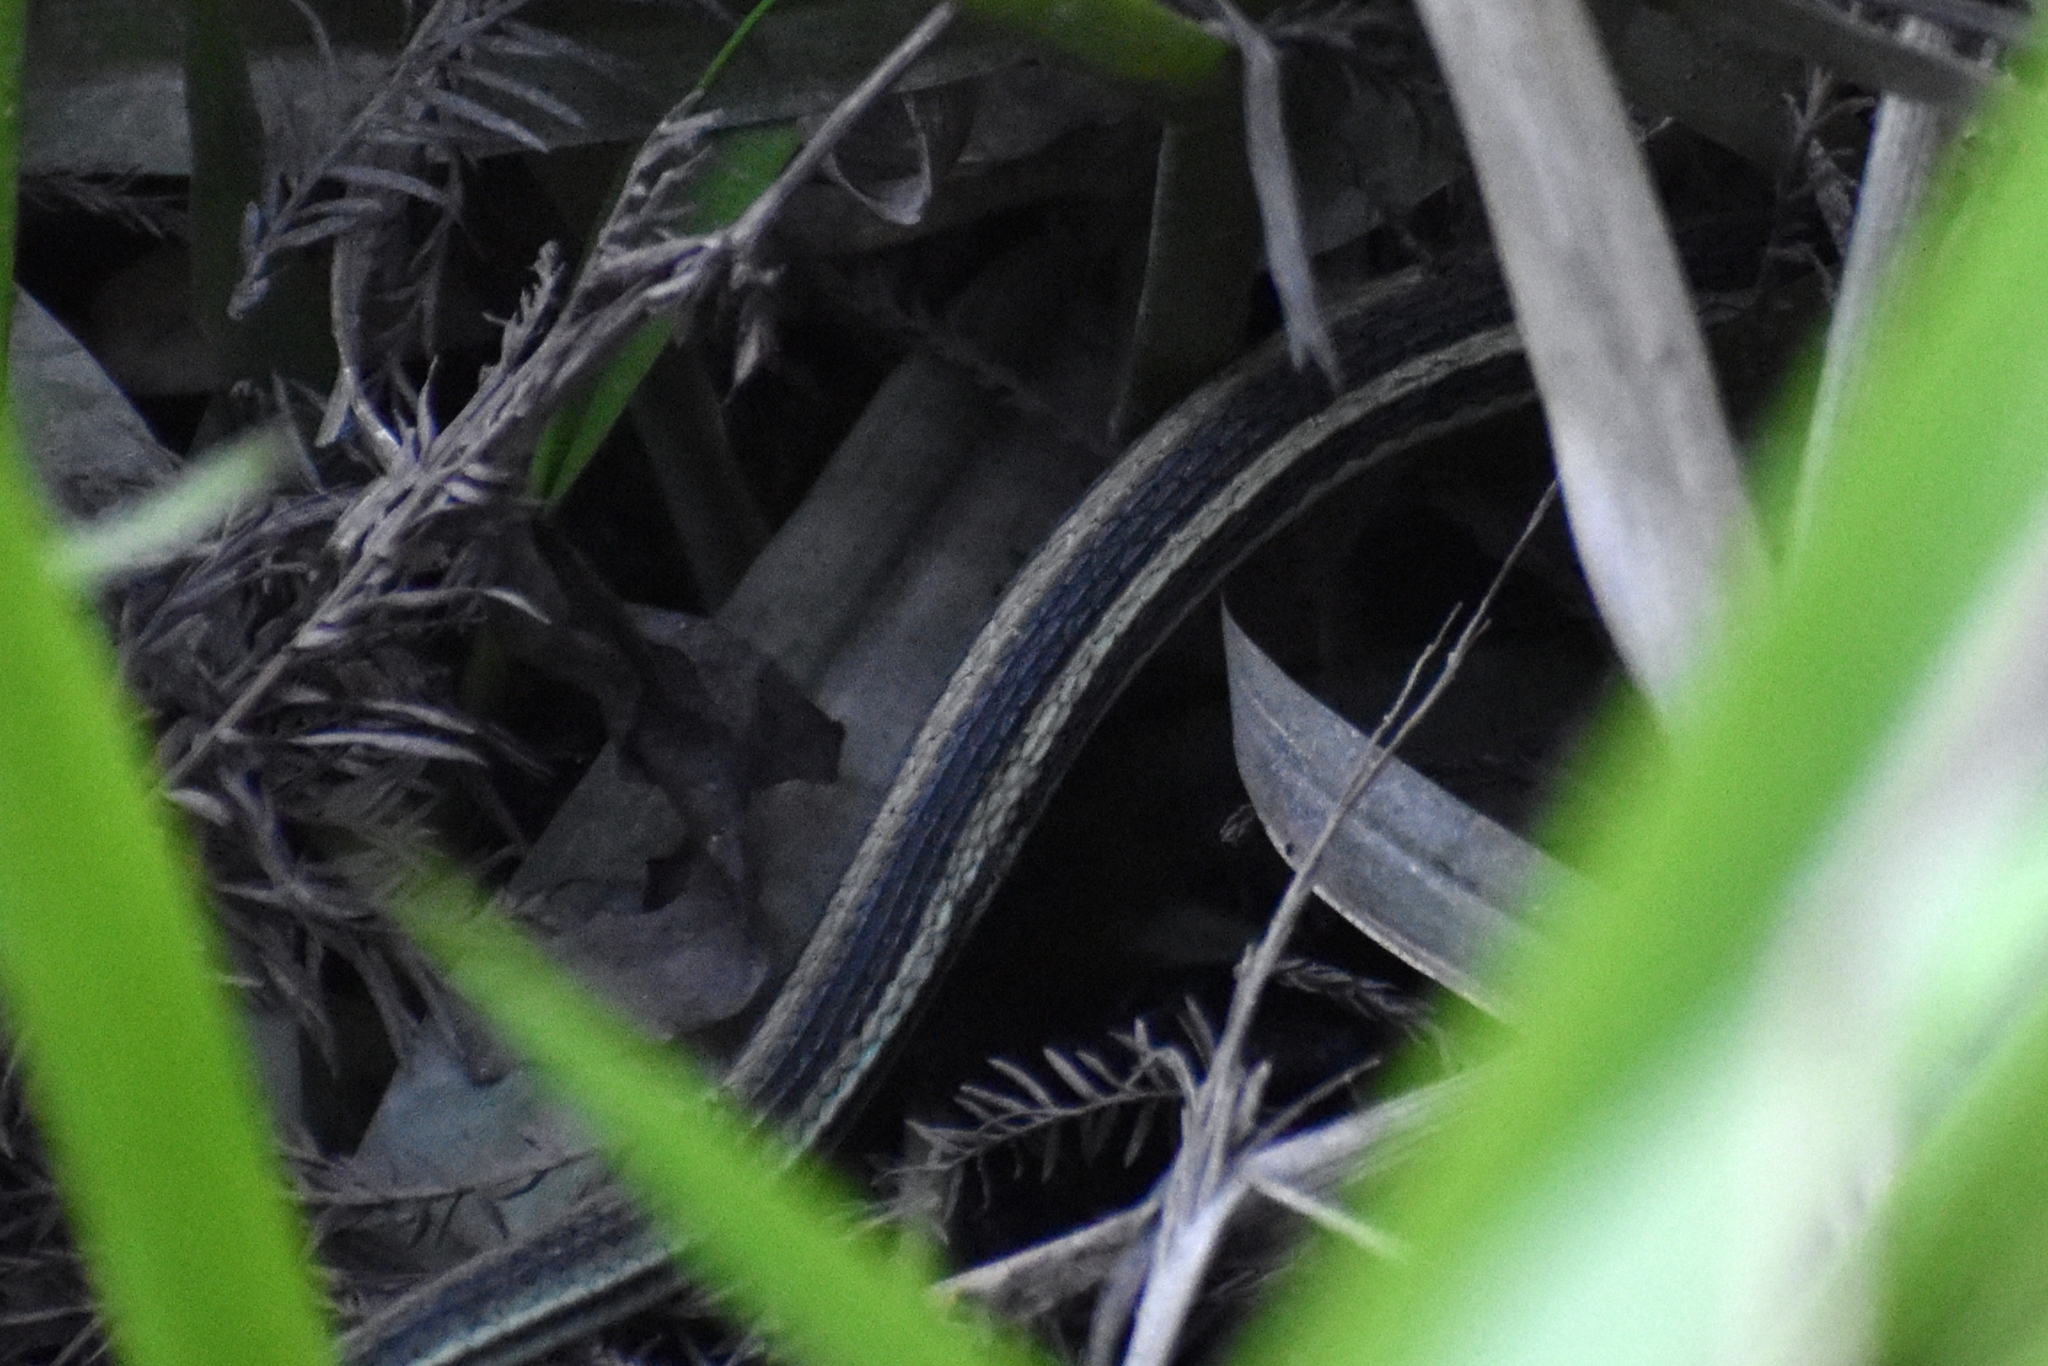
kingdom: Animalia
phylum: Chordata
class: Squamata
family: Colubridae
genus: Thamnophis
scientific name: Thamnophis proximus
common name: Western ribbon snake
